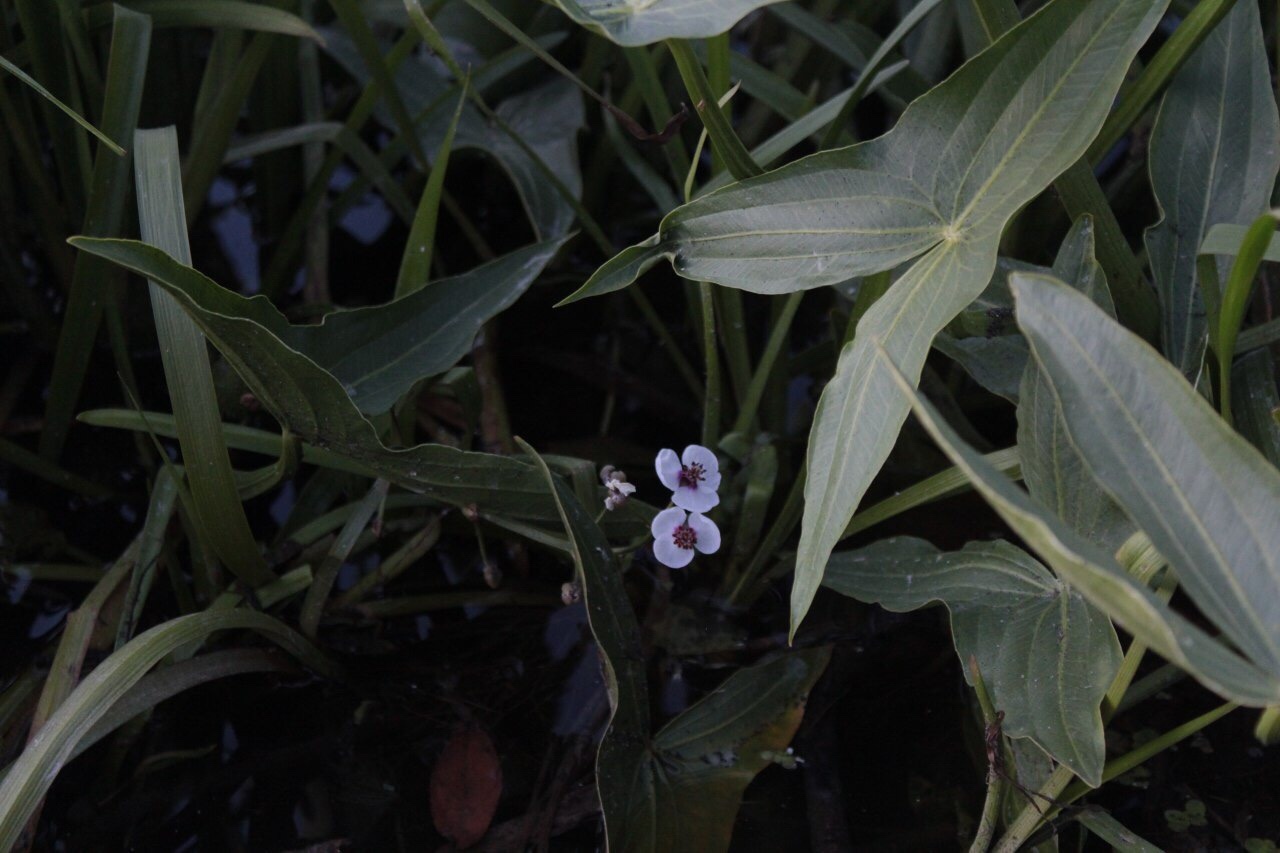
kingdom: Plantae
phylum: Tracheophyta
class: Liliopsida
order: Alismatales
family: Alismataceae
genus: Sagittaria
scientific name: Sagittaria sagittifolia
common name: Arrowhead
